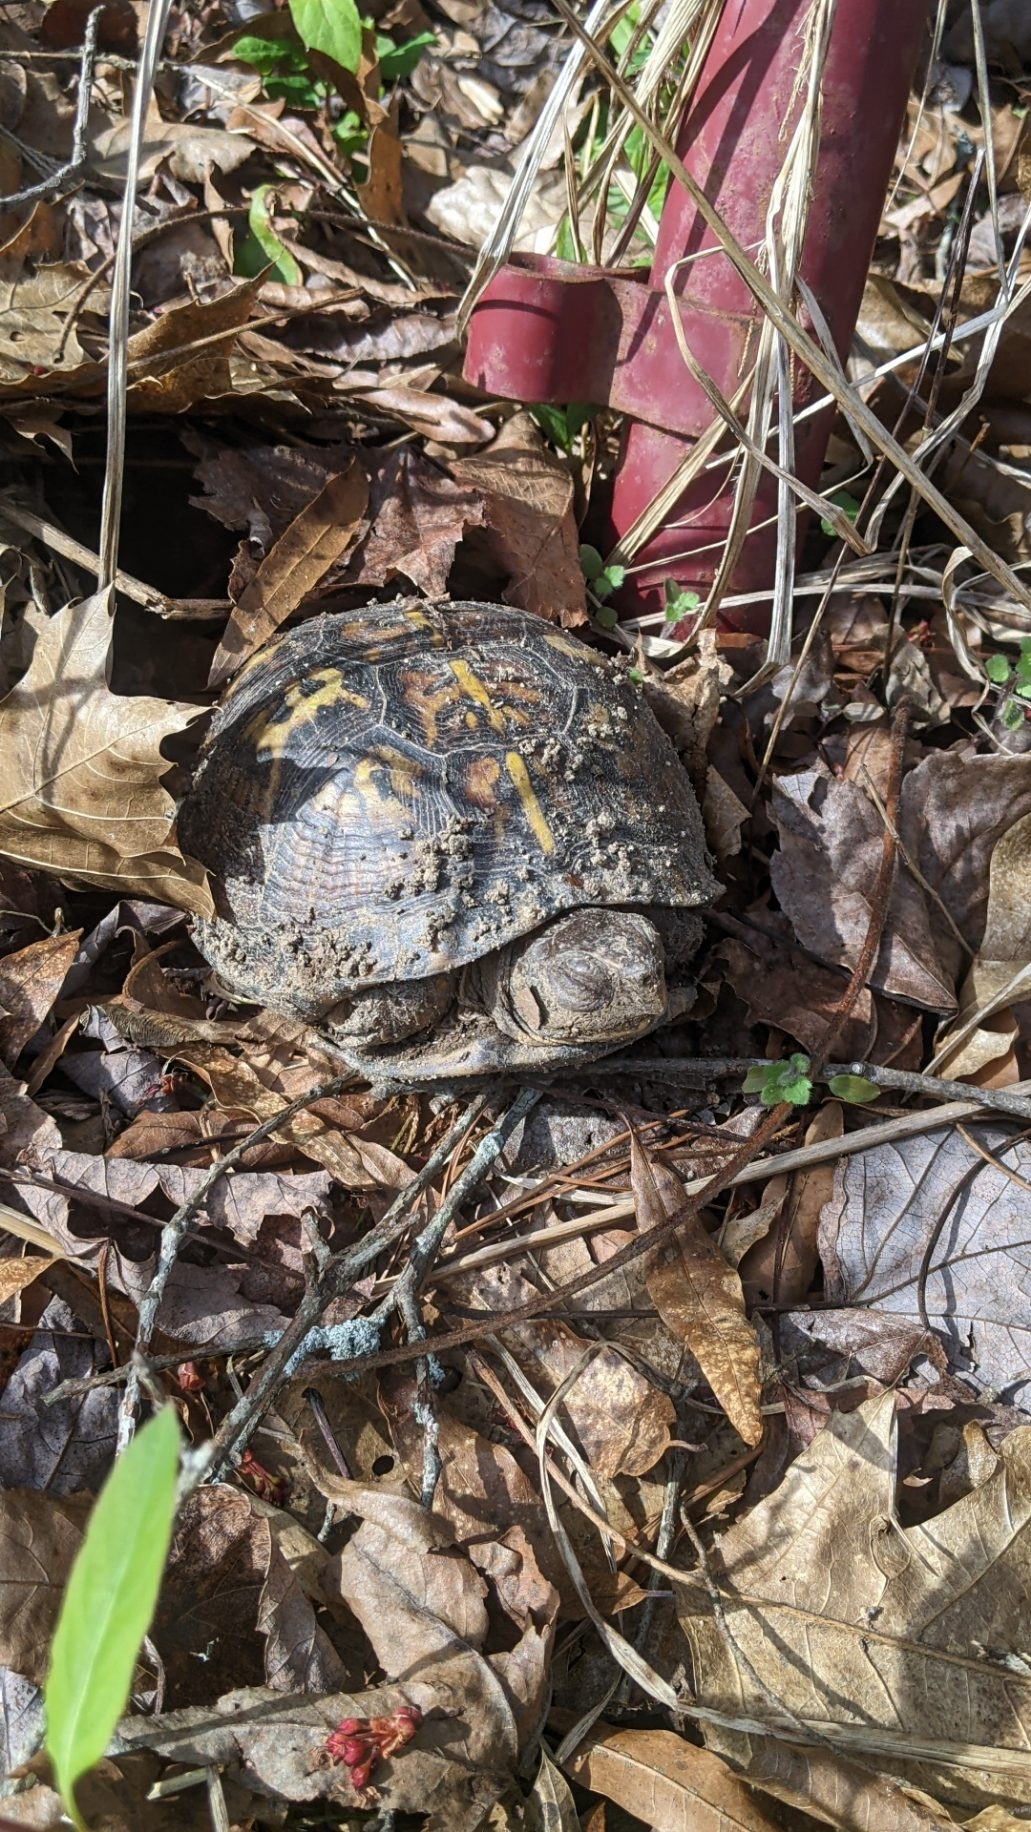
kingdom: Animalia
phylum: Chordata
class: Testudines
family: Emydidae
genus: Terrapene
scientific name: Terrapene carolina
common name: Common box turtle
